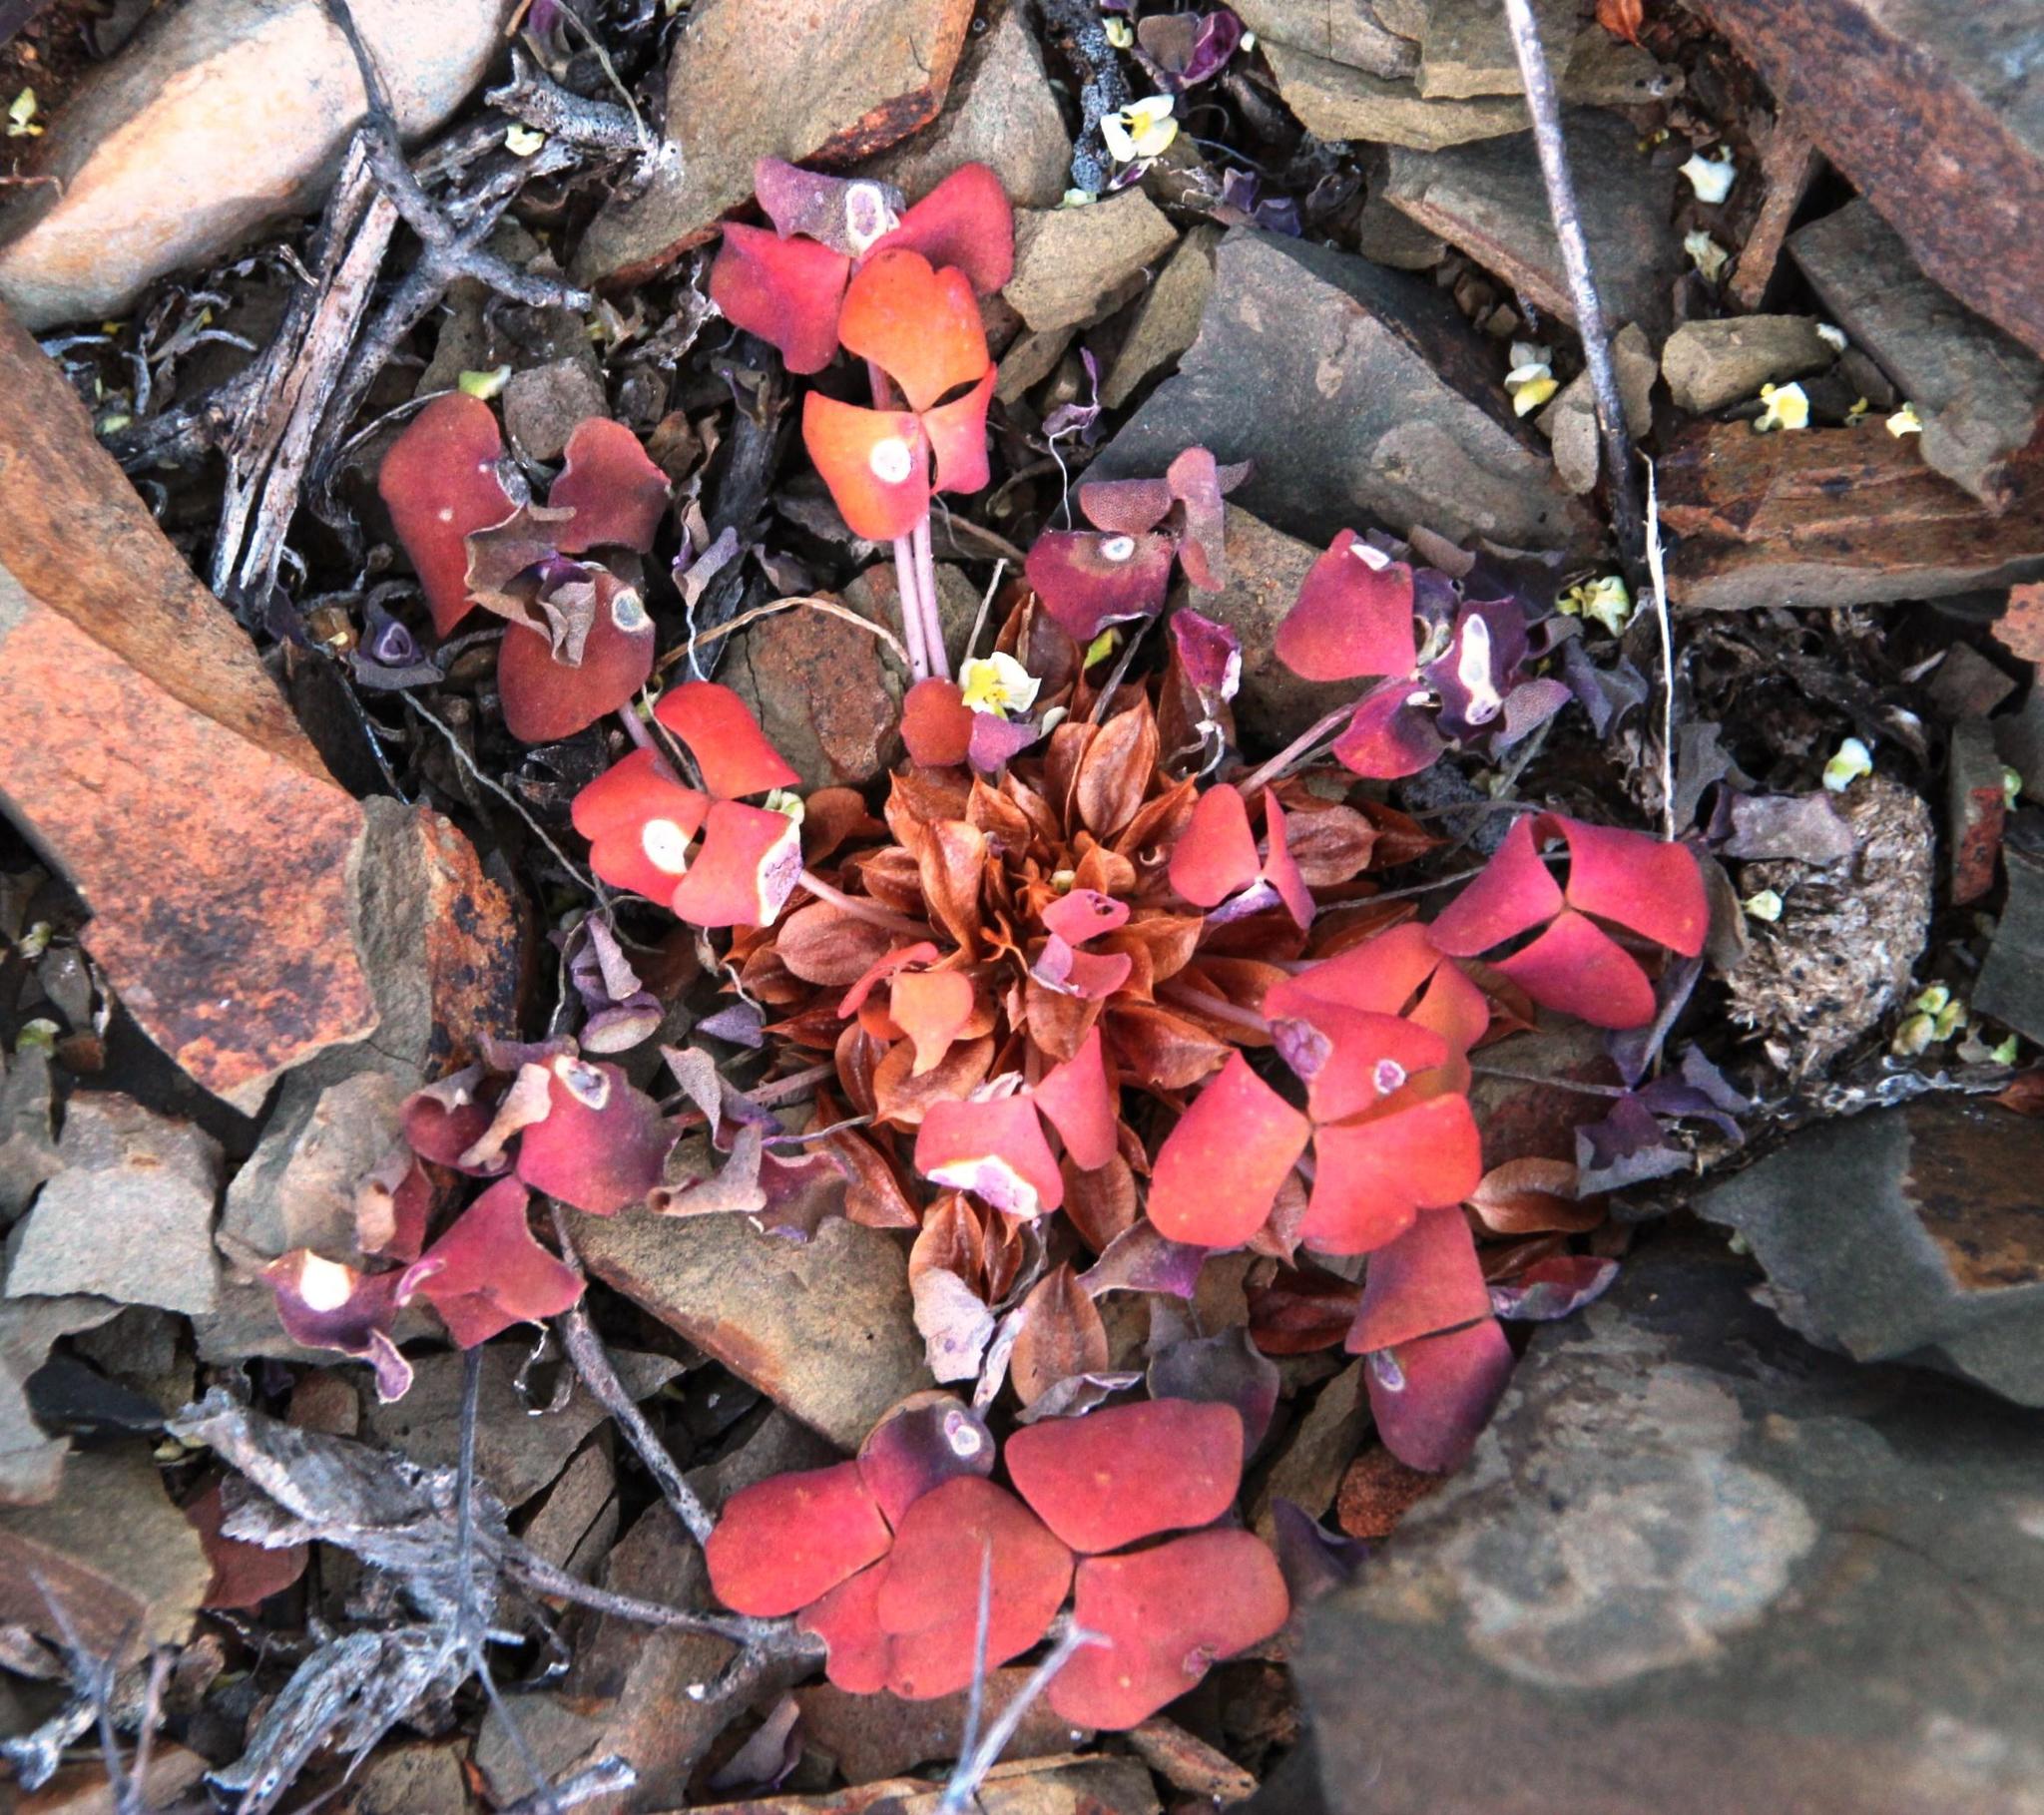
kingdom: Plantae
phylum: Tracheophyta
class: Magnoliopsida
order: Oxalidales
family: Oxalidaceae
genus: Oxalis
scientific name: Oxalis pocockiae
